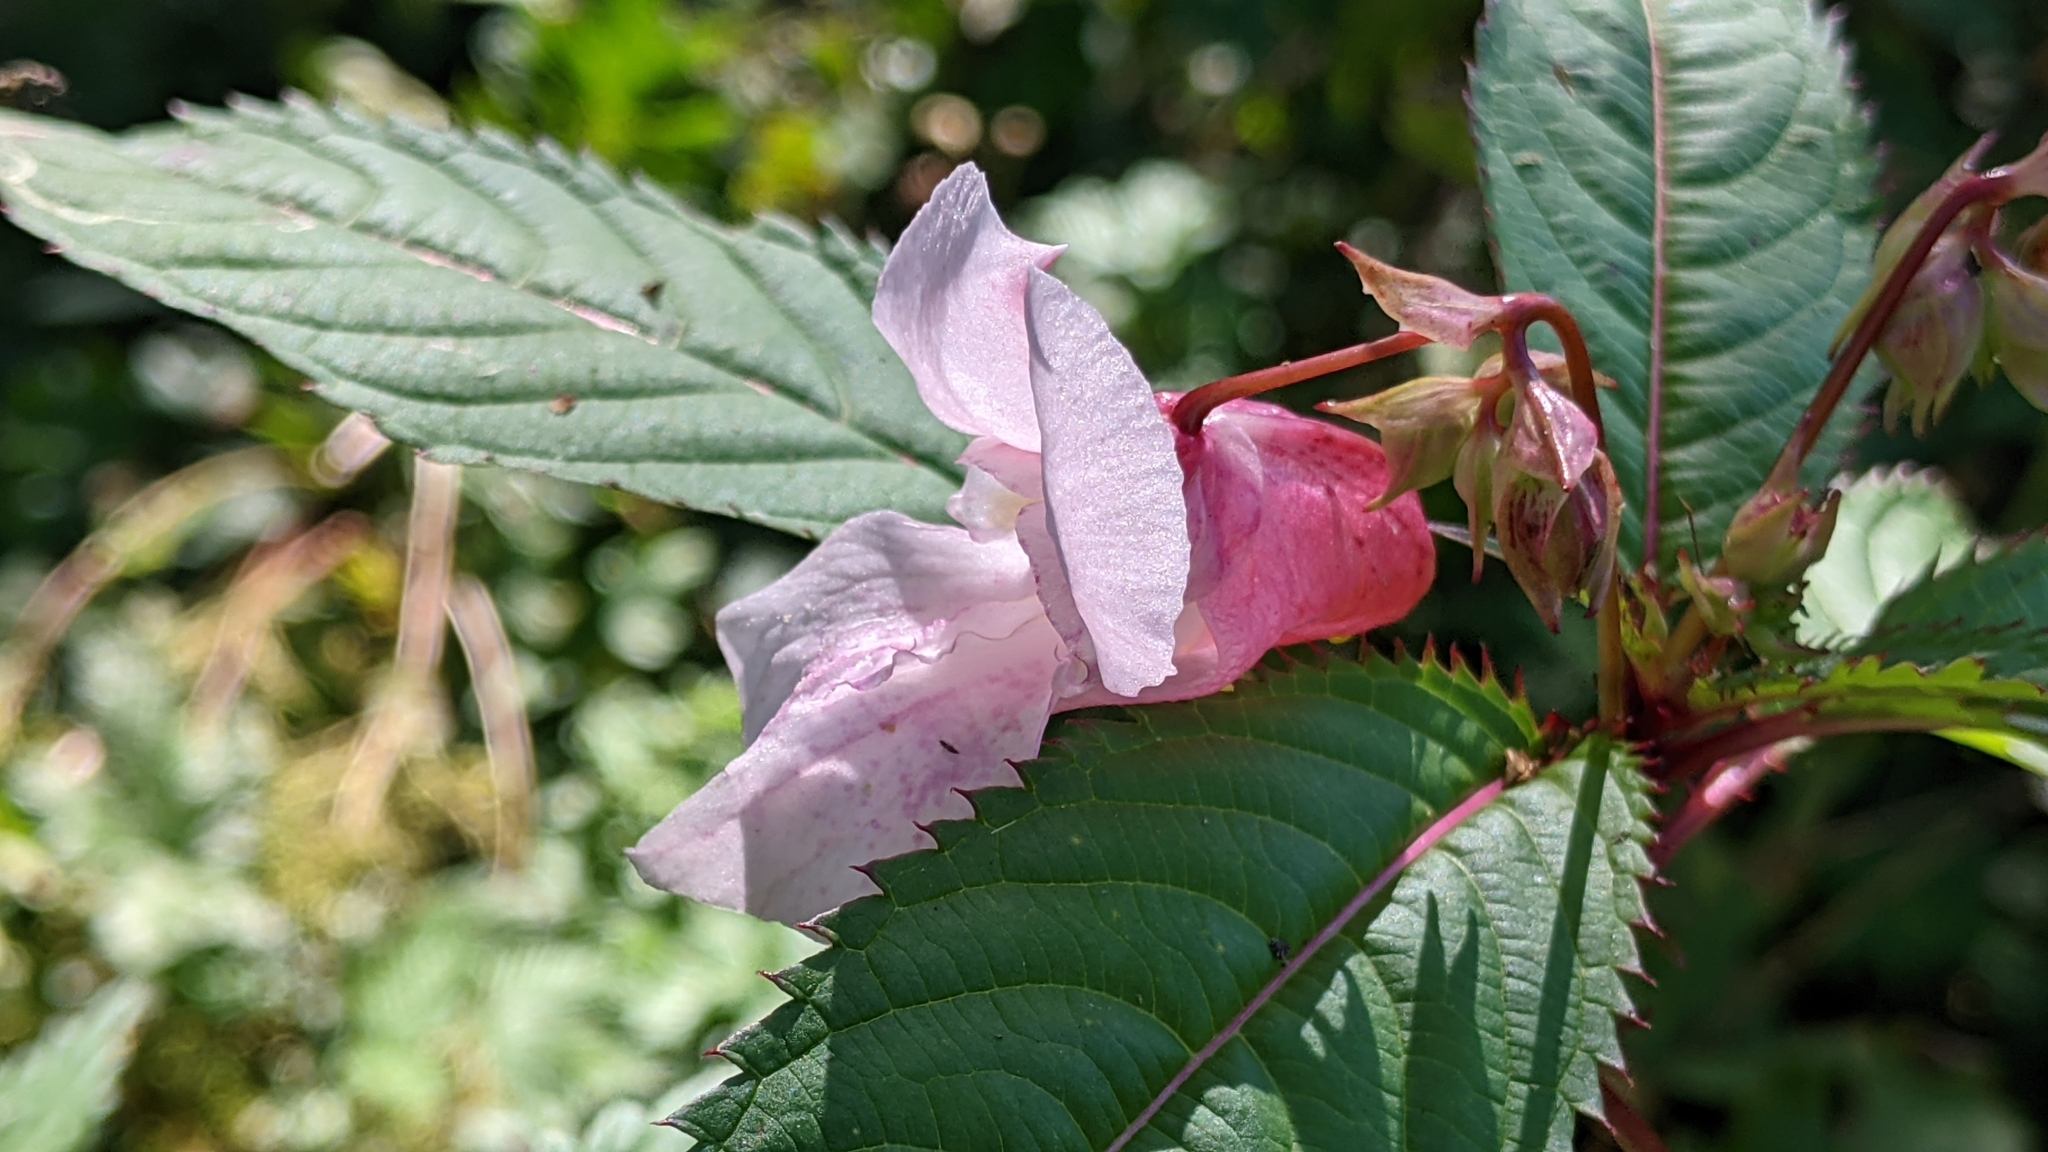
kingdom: Plantae
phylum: Tracheophyta
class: Magnoliopsida
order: Ericales
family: Balsaminaceae
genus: Impatiens
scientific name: Impatiens glandulifera
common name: Himalayan balsam
